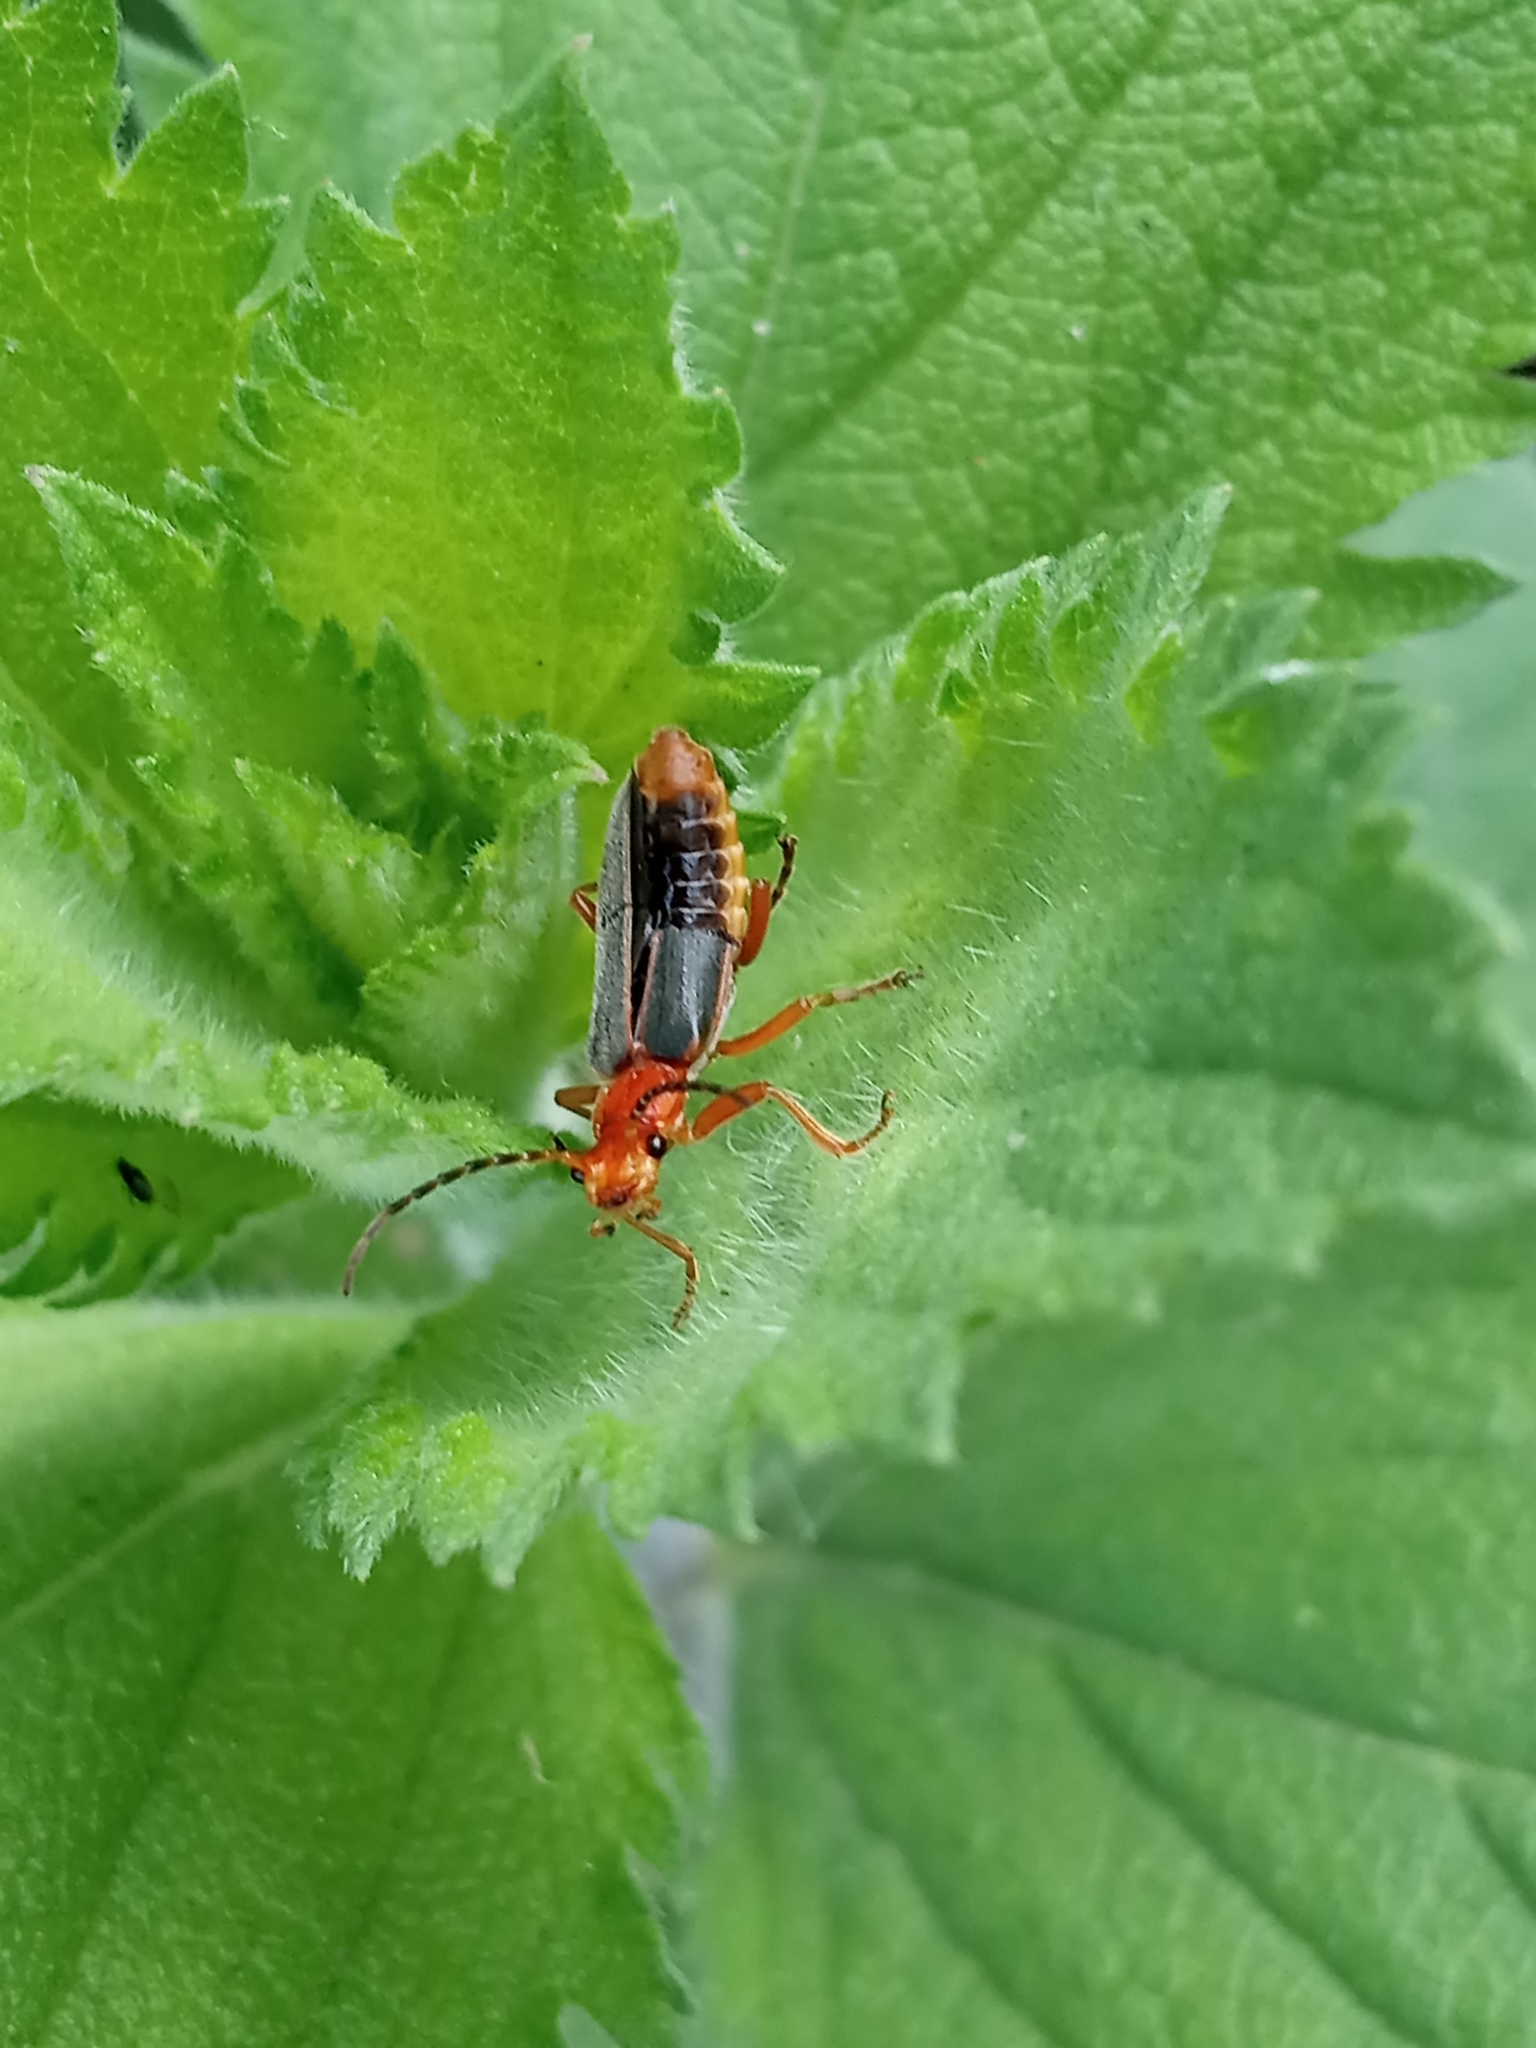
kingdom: Animalia
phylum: Arthropoda
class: Insecta
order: Coleoptera
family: Cantharidae
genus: Podabrus
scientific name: Podabrus tomentosus
